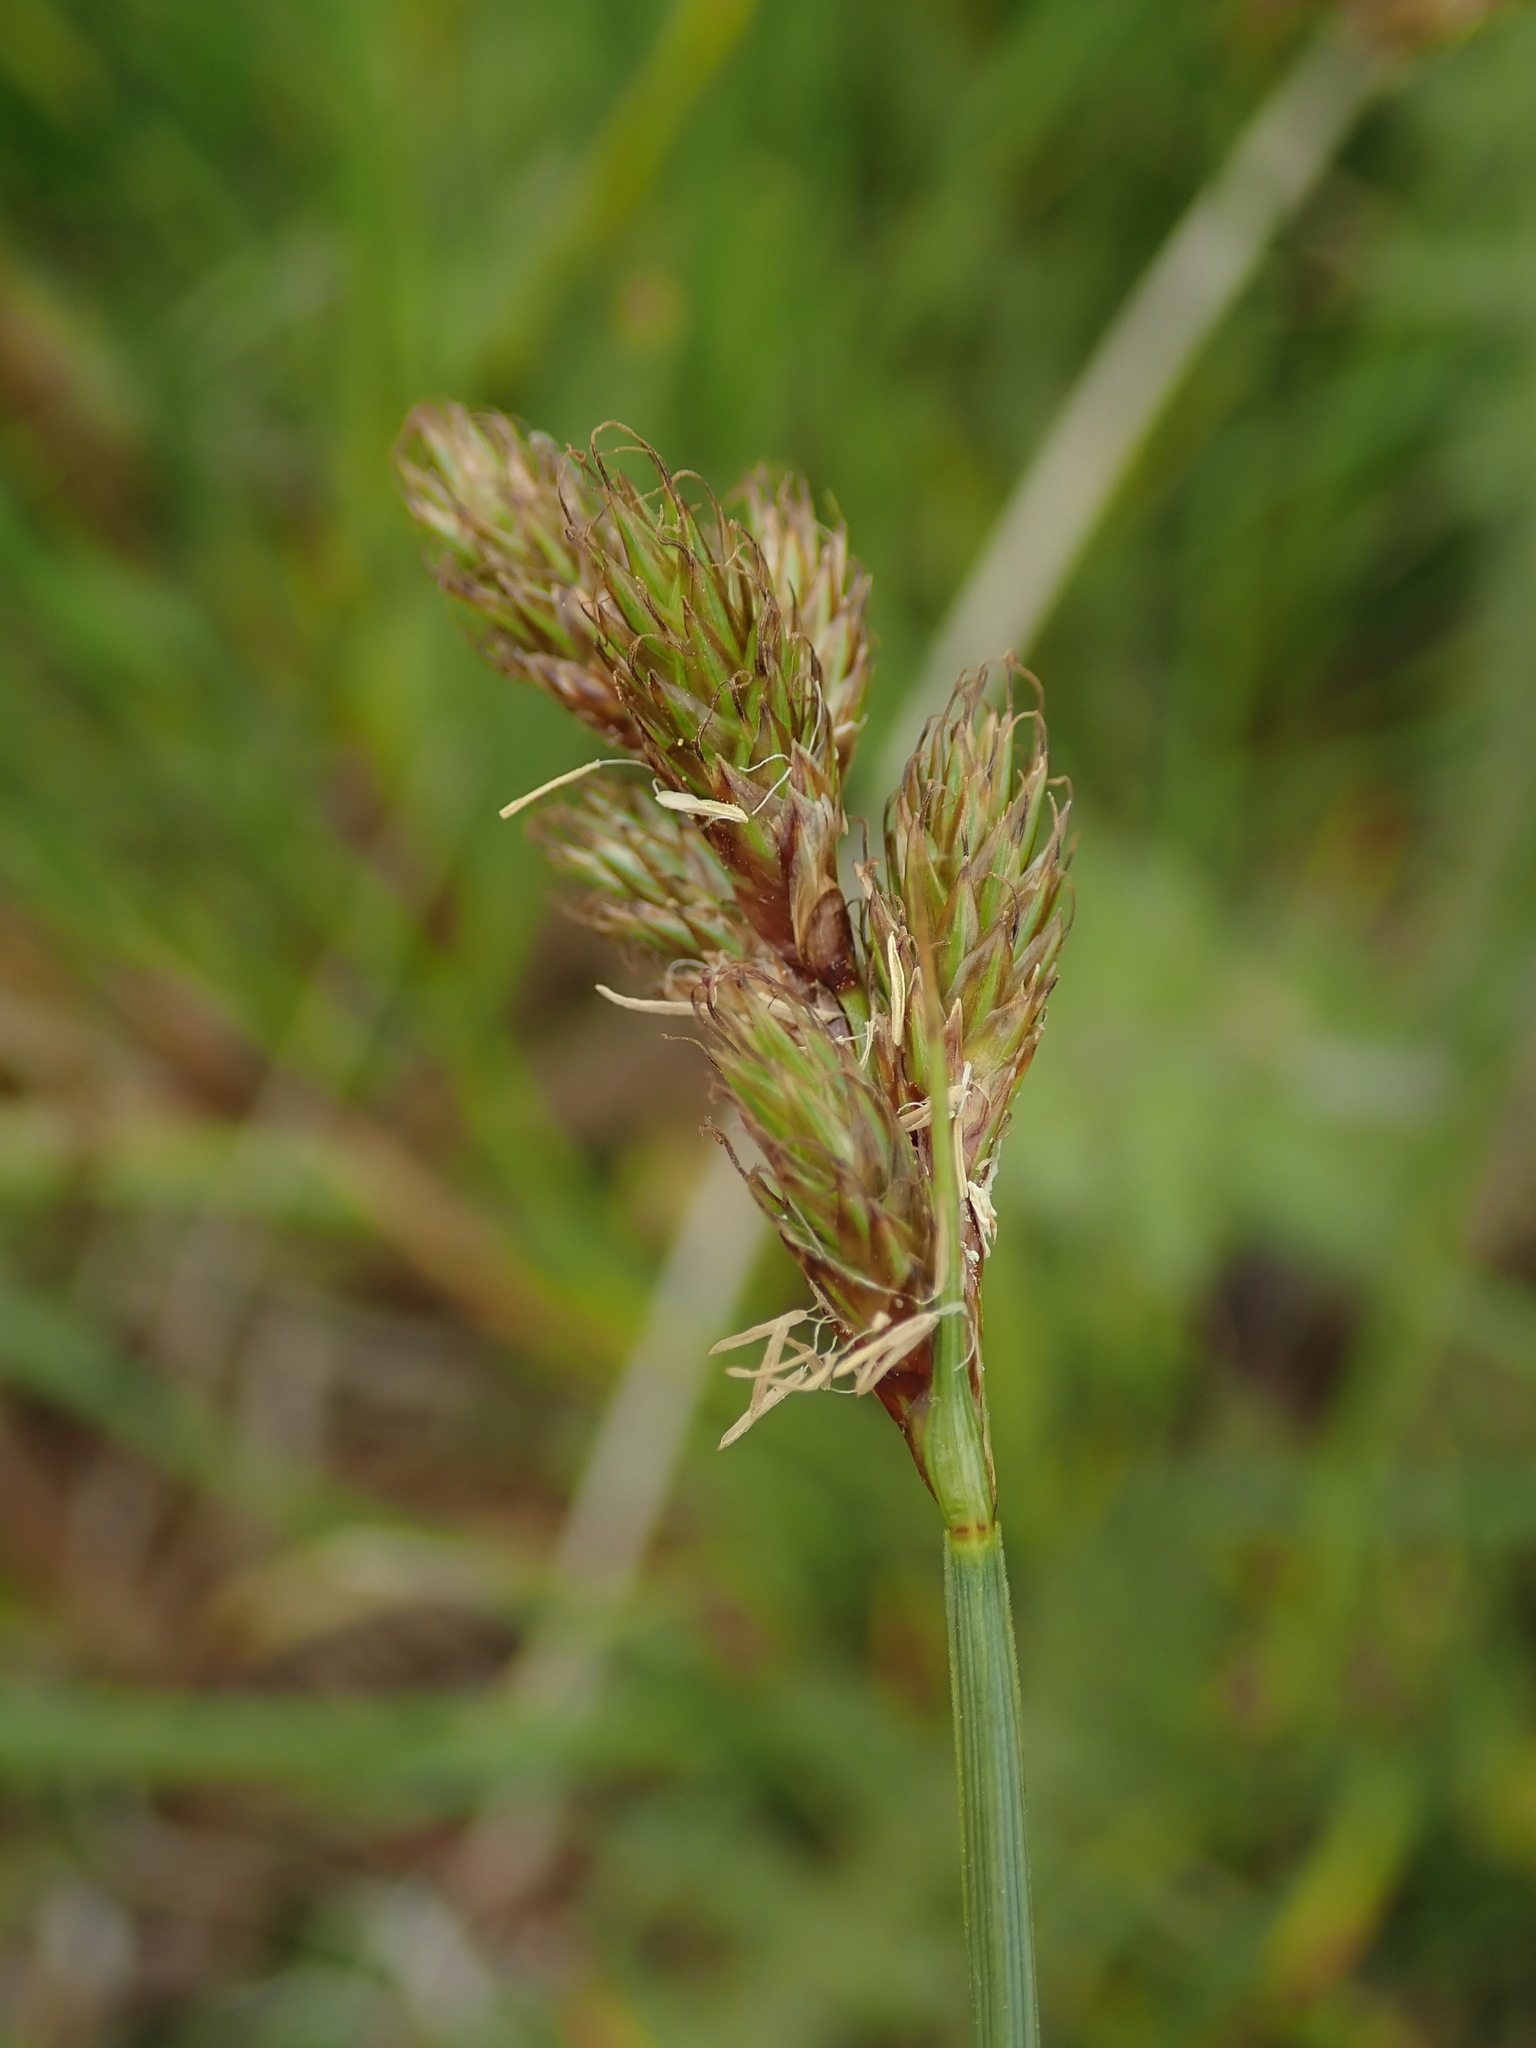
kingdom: Plantae
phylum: Tracheophyta
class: Liliopsida
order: Poales
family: Cyperaceae
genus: Carex
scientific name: Carex leporina
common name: Oval sedge
